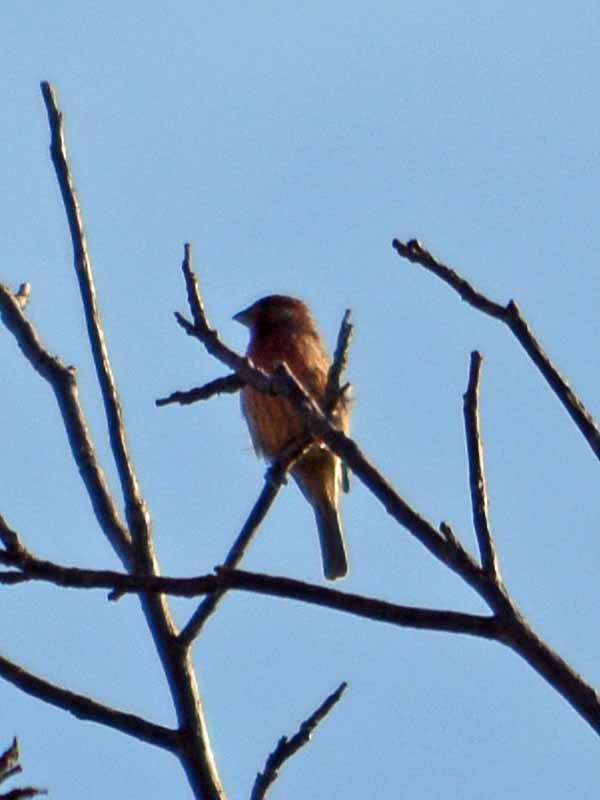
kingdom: Animalia
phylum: Chordata
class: Aves
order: Passeriformes
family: Fringillidae
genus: Haemorhous
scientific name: Haemorhous mexicanus
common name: House finch
